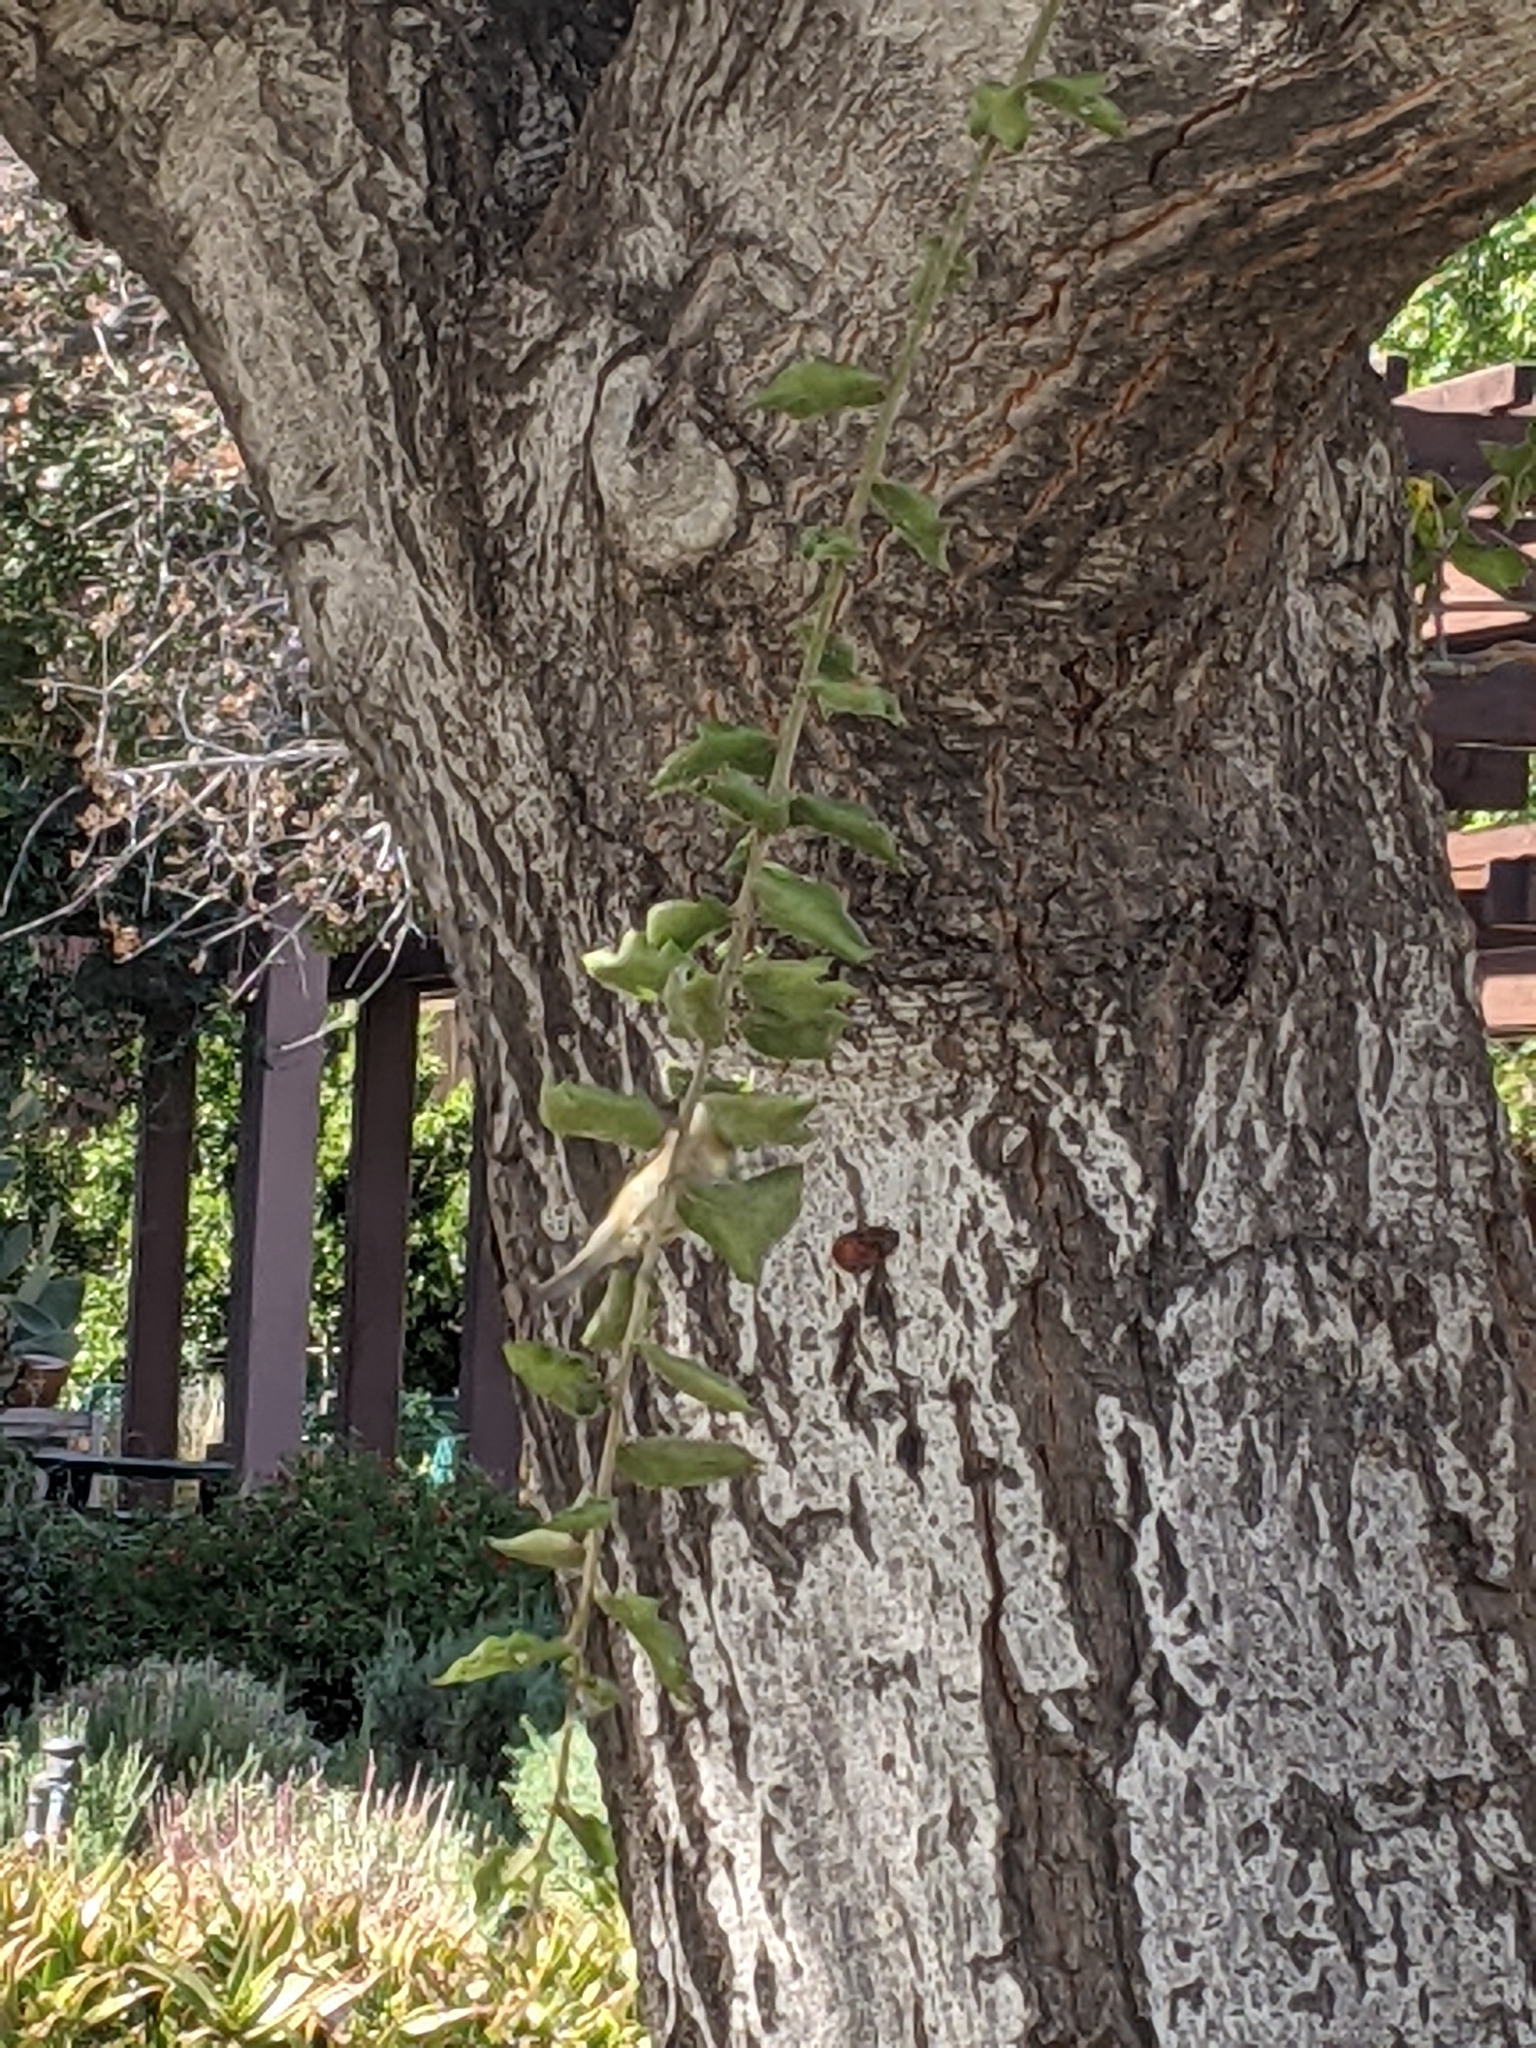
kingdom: Animalia
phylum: Chordata
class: Aves
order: Passeriformes
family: Regulidae
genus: Regulus
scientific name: Regulus calendula
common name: Ruby-crowned kinglet
